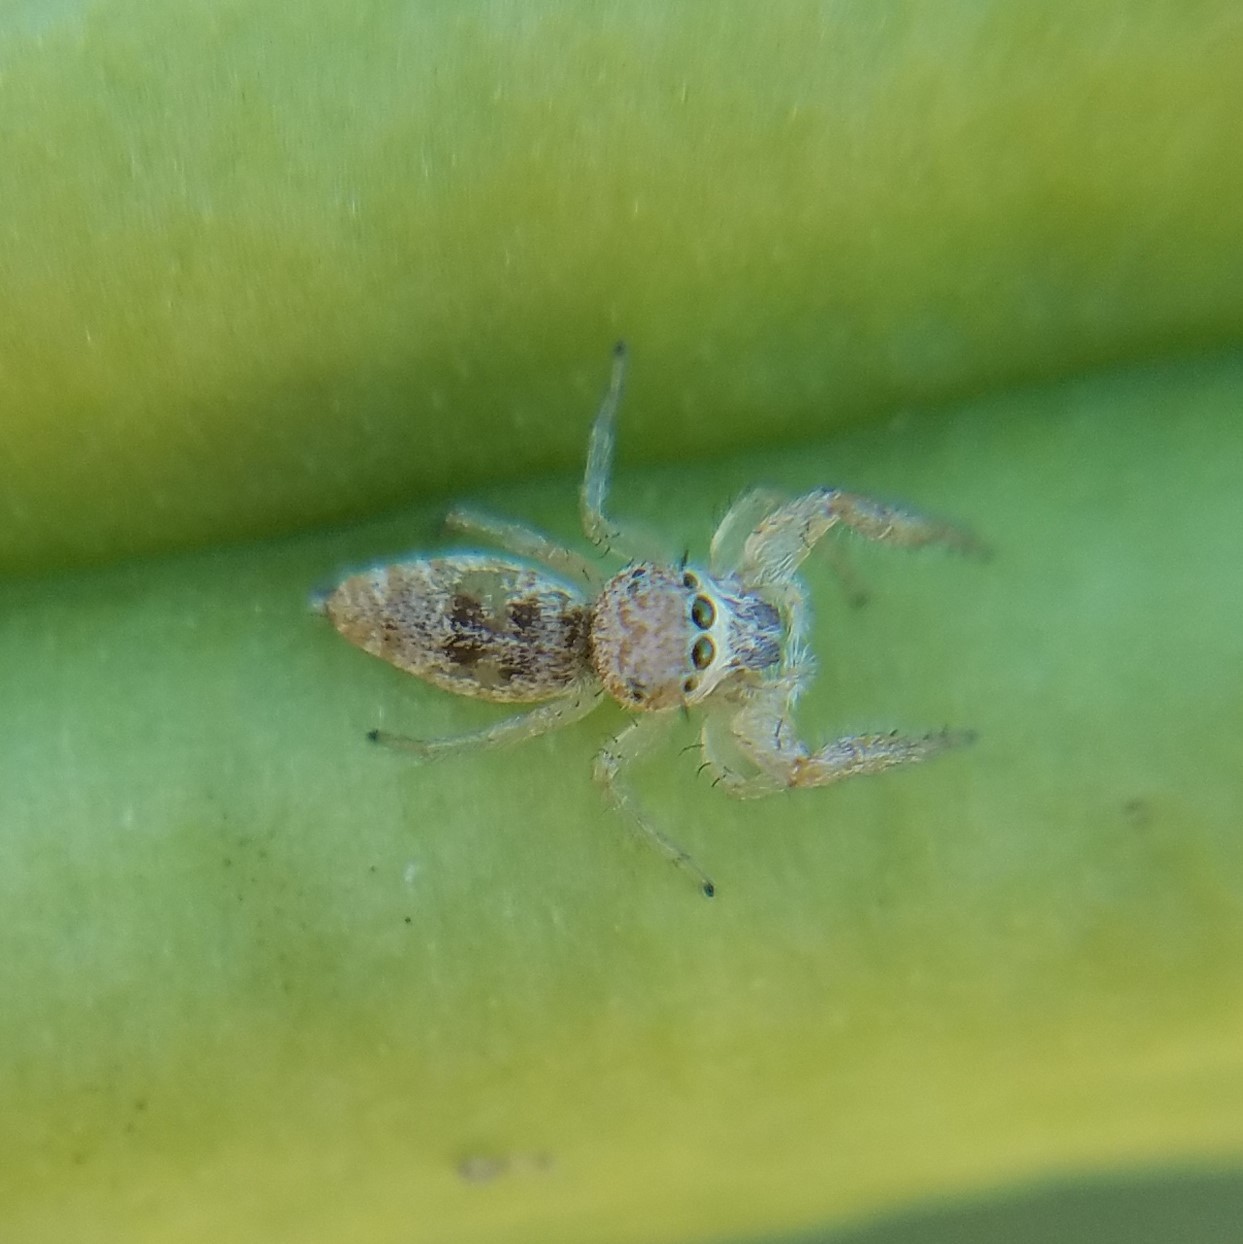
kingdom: Animalia
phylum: Arthropoda
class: Arachnida
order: Araneae
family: Salticidae
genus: Hentzia
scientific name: Hentzia
